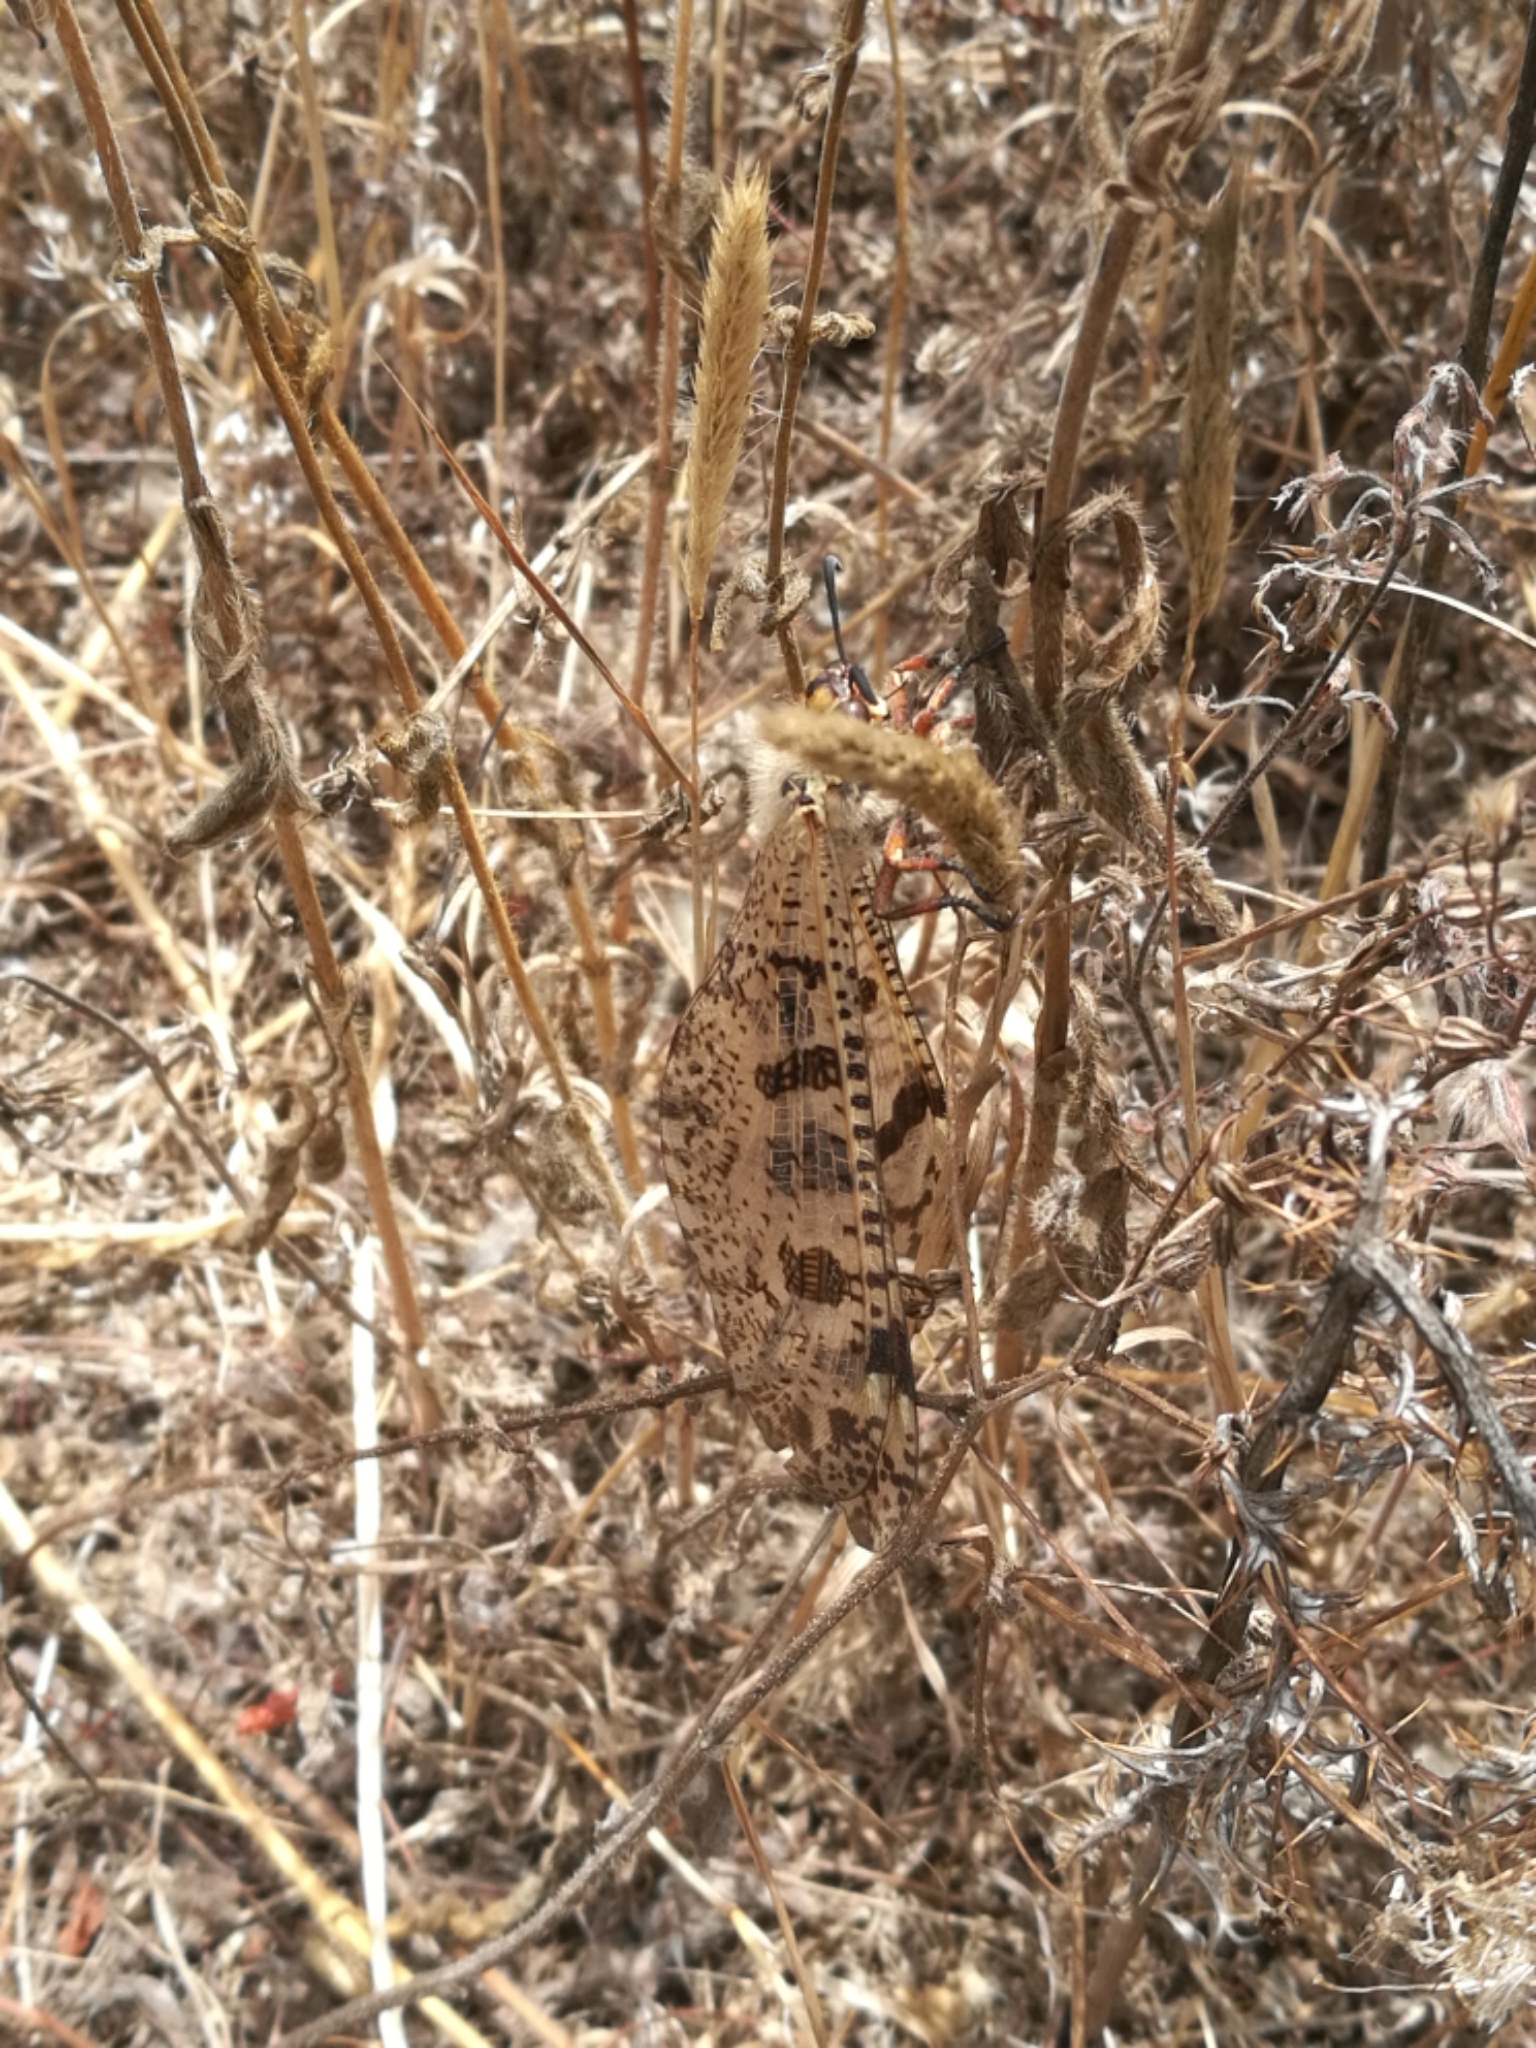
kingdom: Animalia
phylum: Arthropoda
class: Insecta
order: Neuroptera
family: Myrmeleontidae
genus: Palpares
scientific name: Palpares libelluloides
